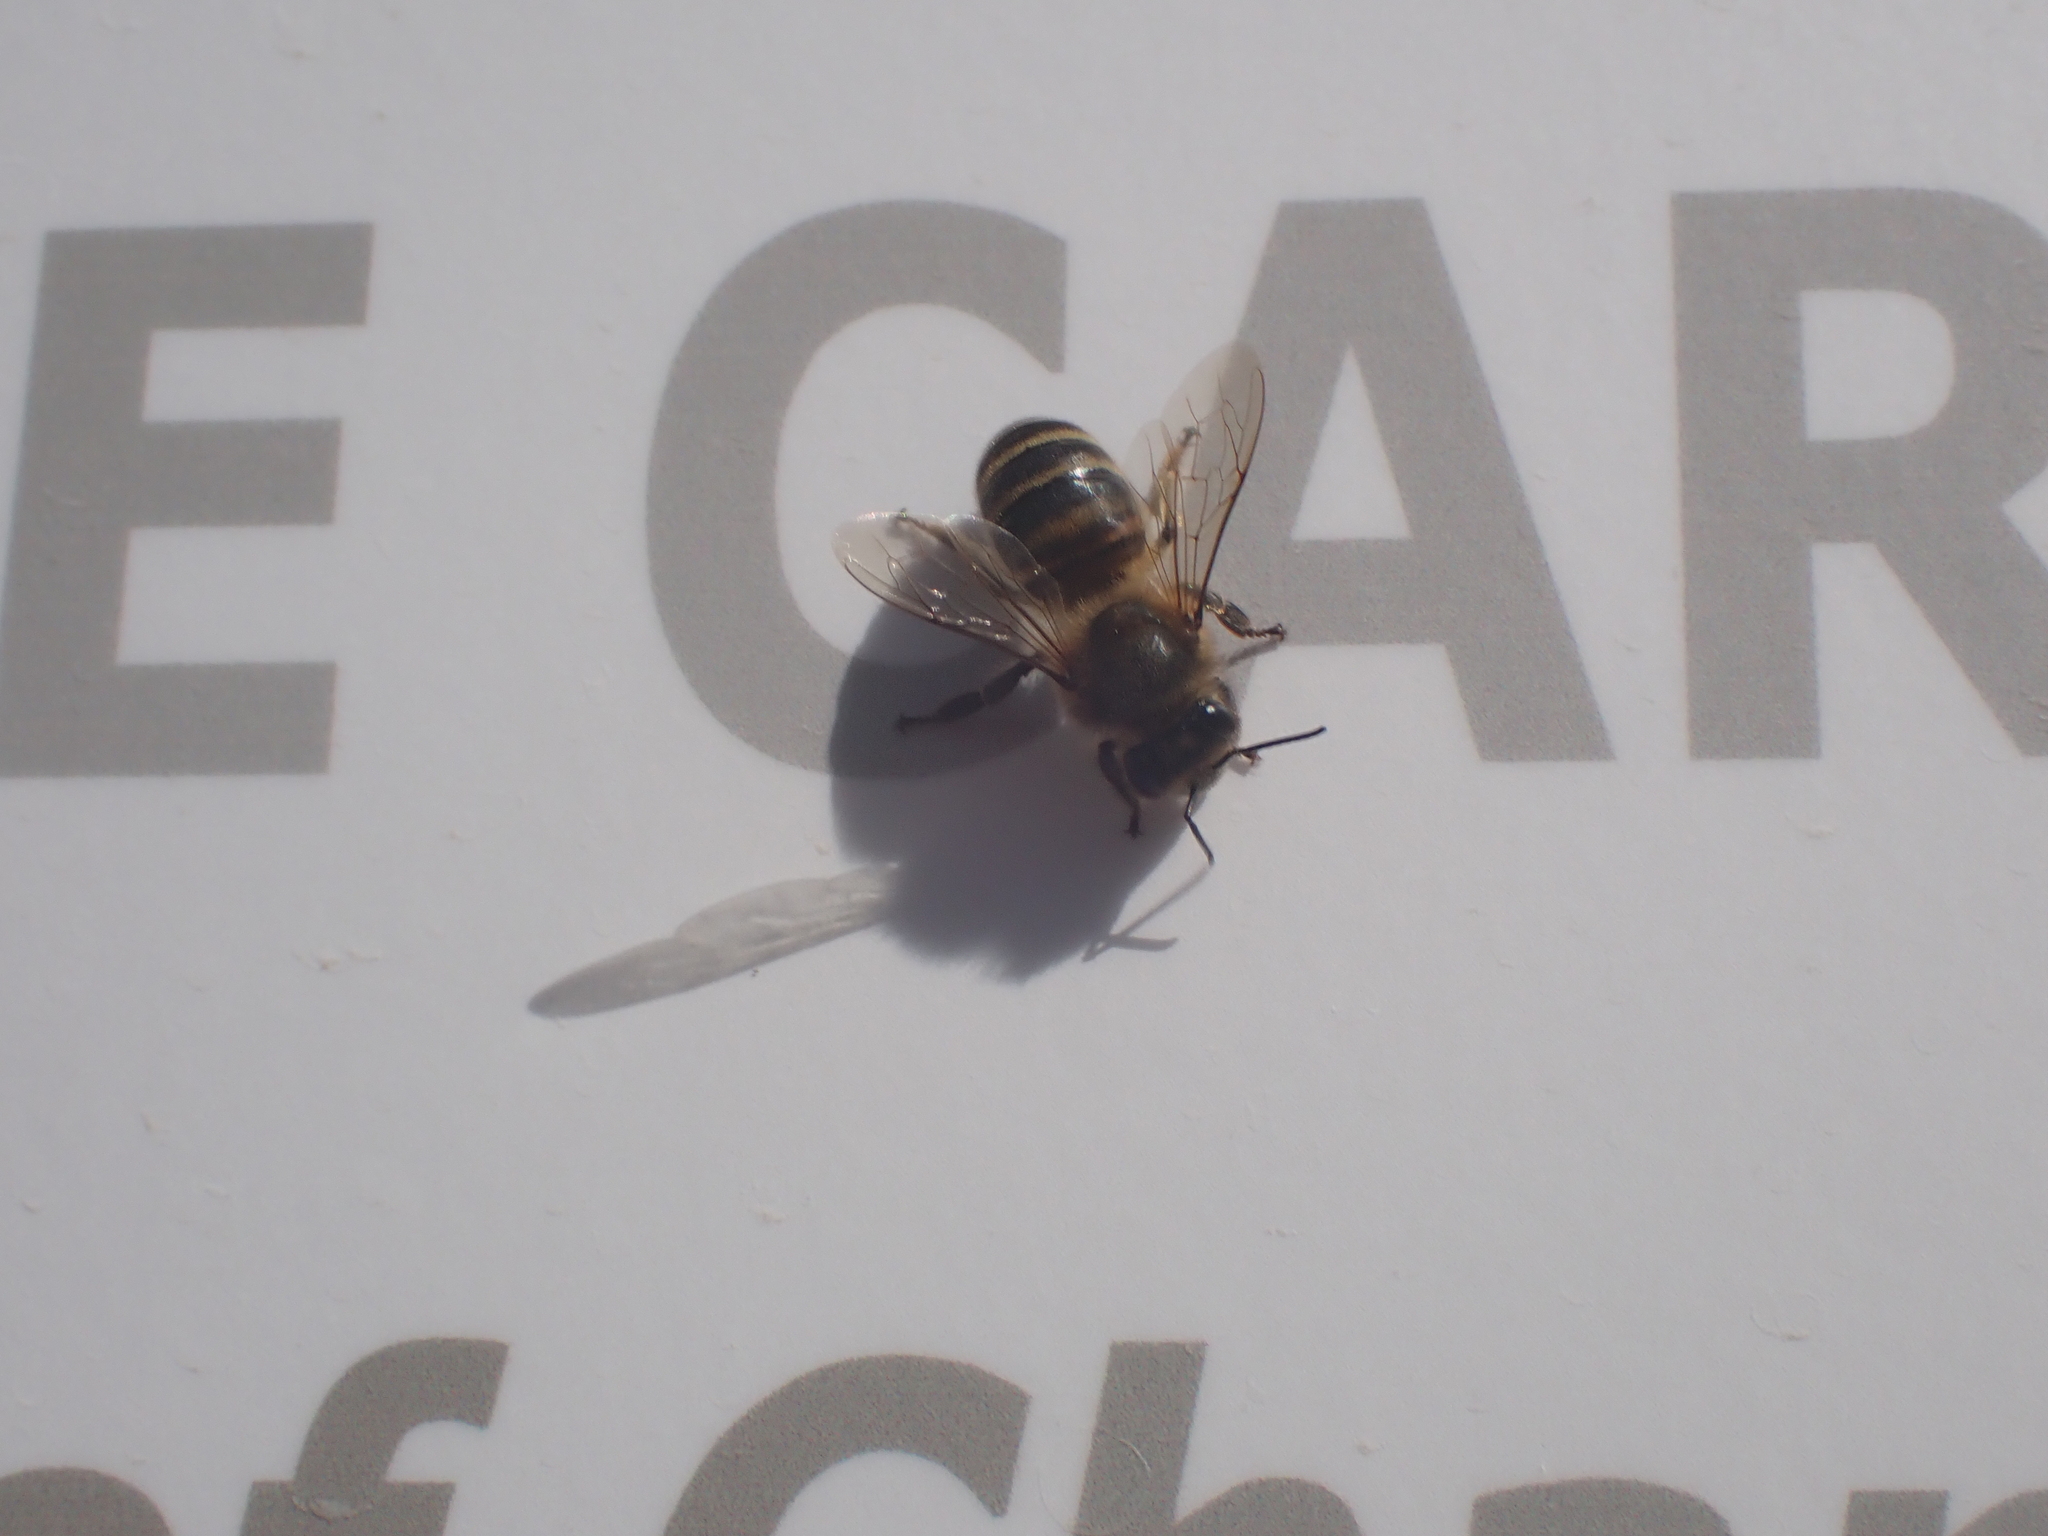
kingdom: Animalia
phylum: Arthropoda
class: Insecta
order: Hymenoptera
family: Apidae
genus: Apis
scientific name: Apis mellifera
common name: Honey bee
